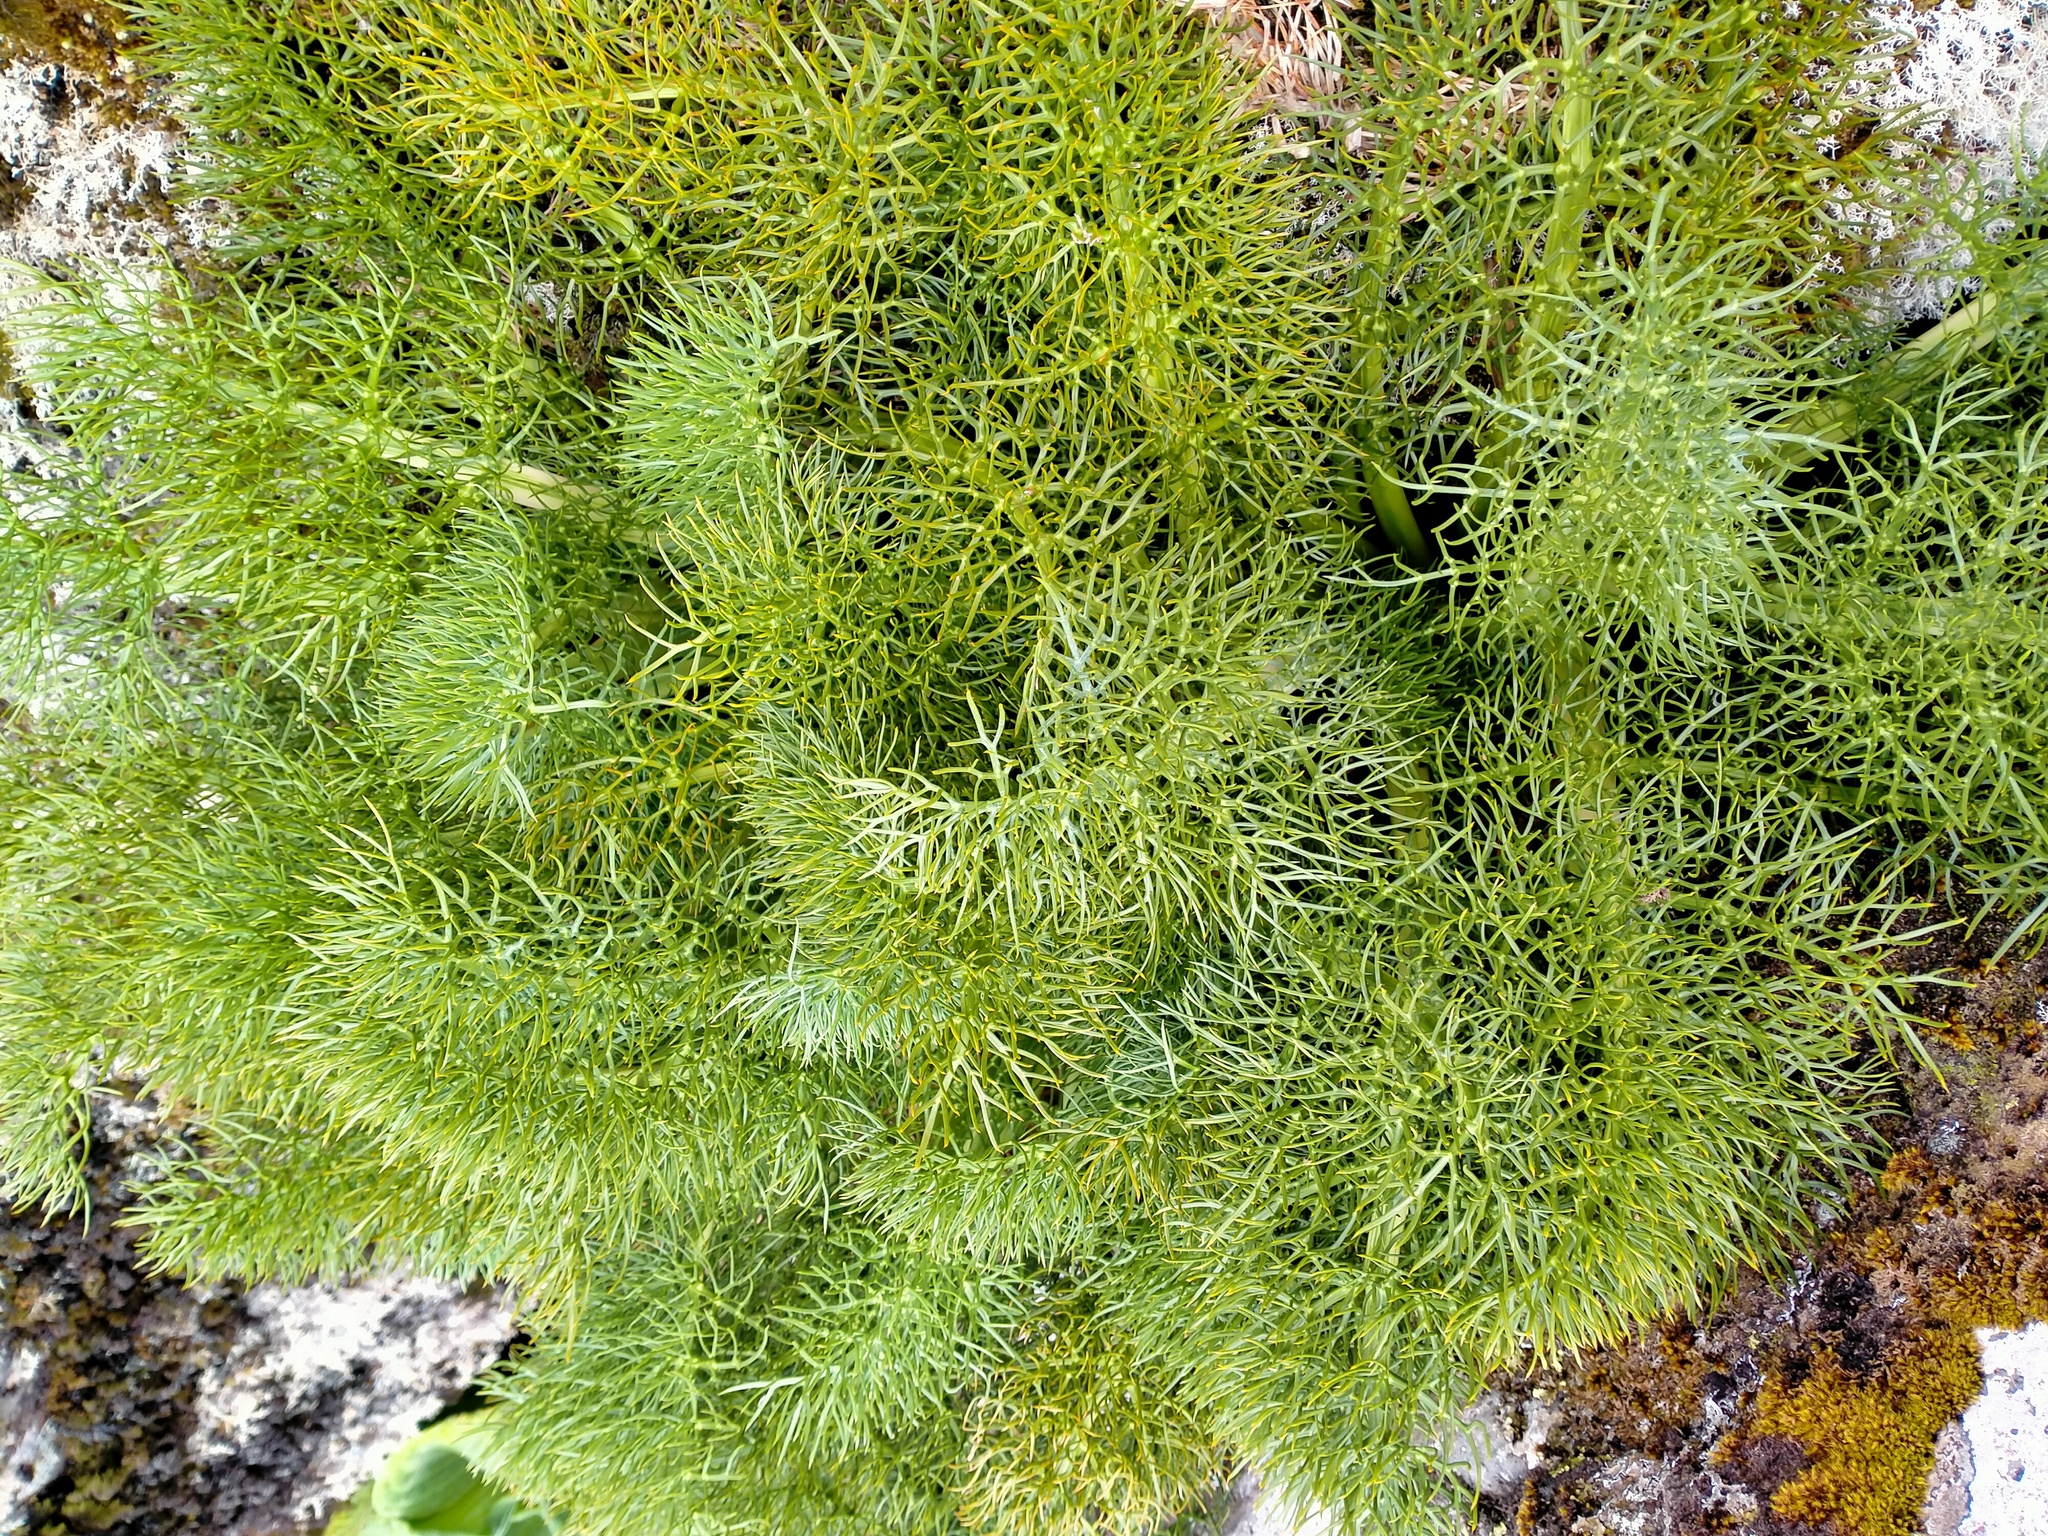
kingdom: Plantae
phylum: Tracheophyta
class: Magnoliopsida
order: Apiales
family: Apiaceae
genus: Anisotome
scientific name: Anisotome antipoda
